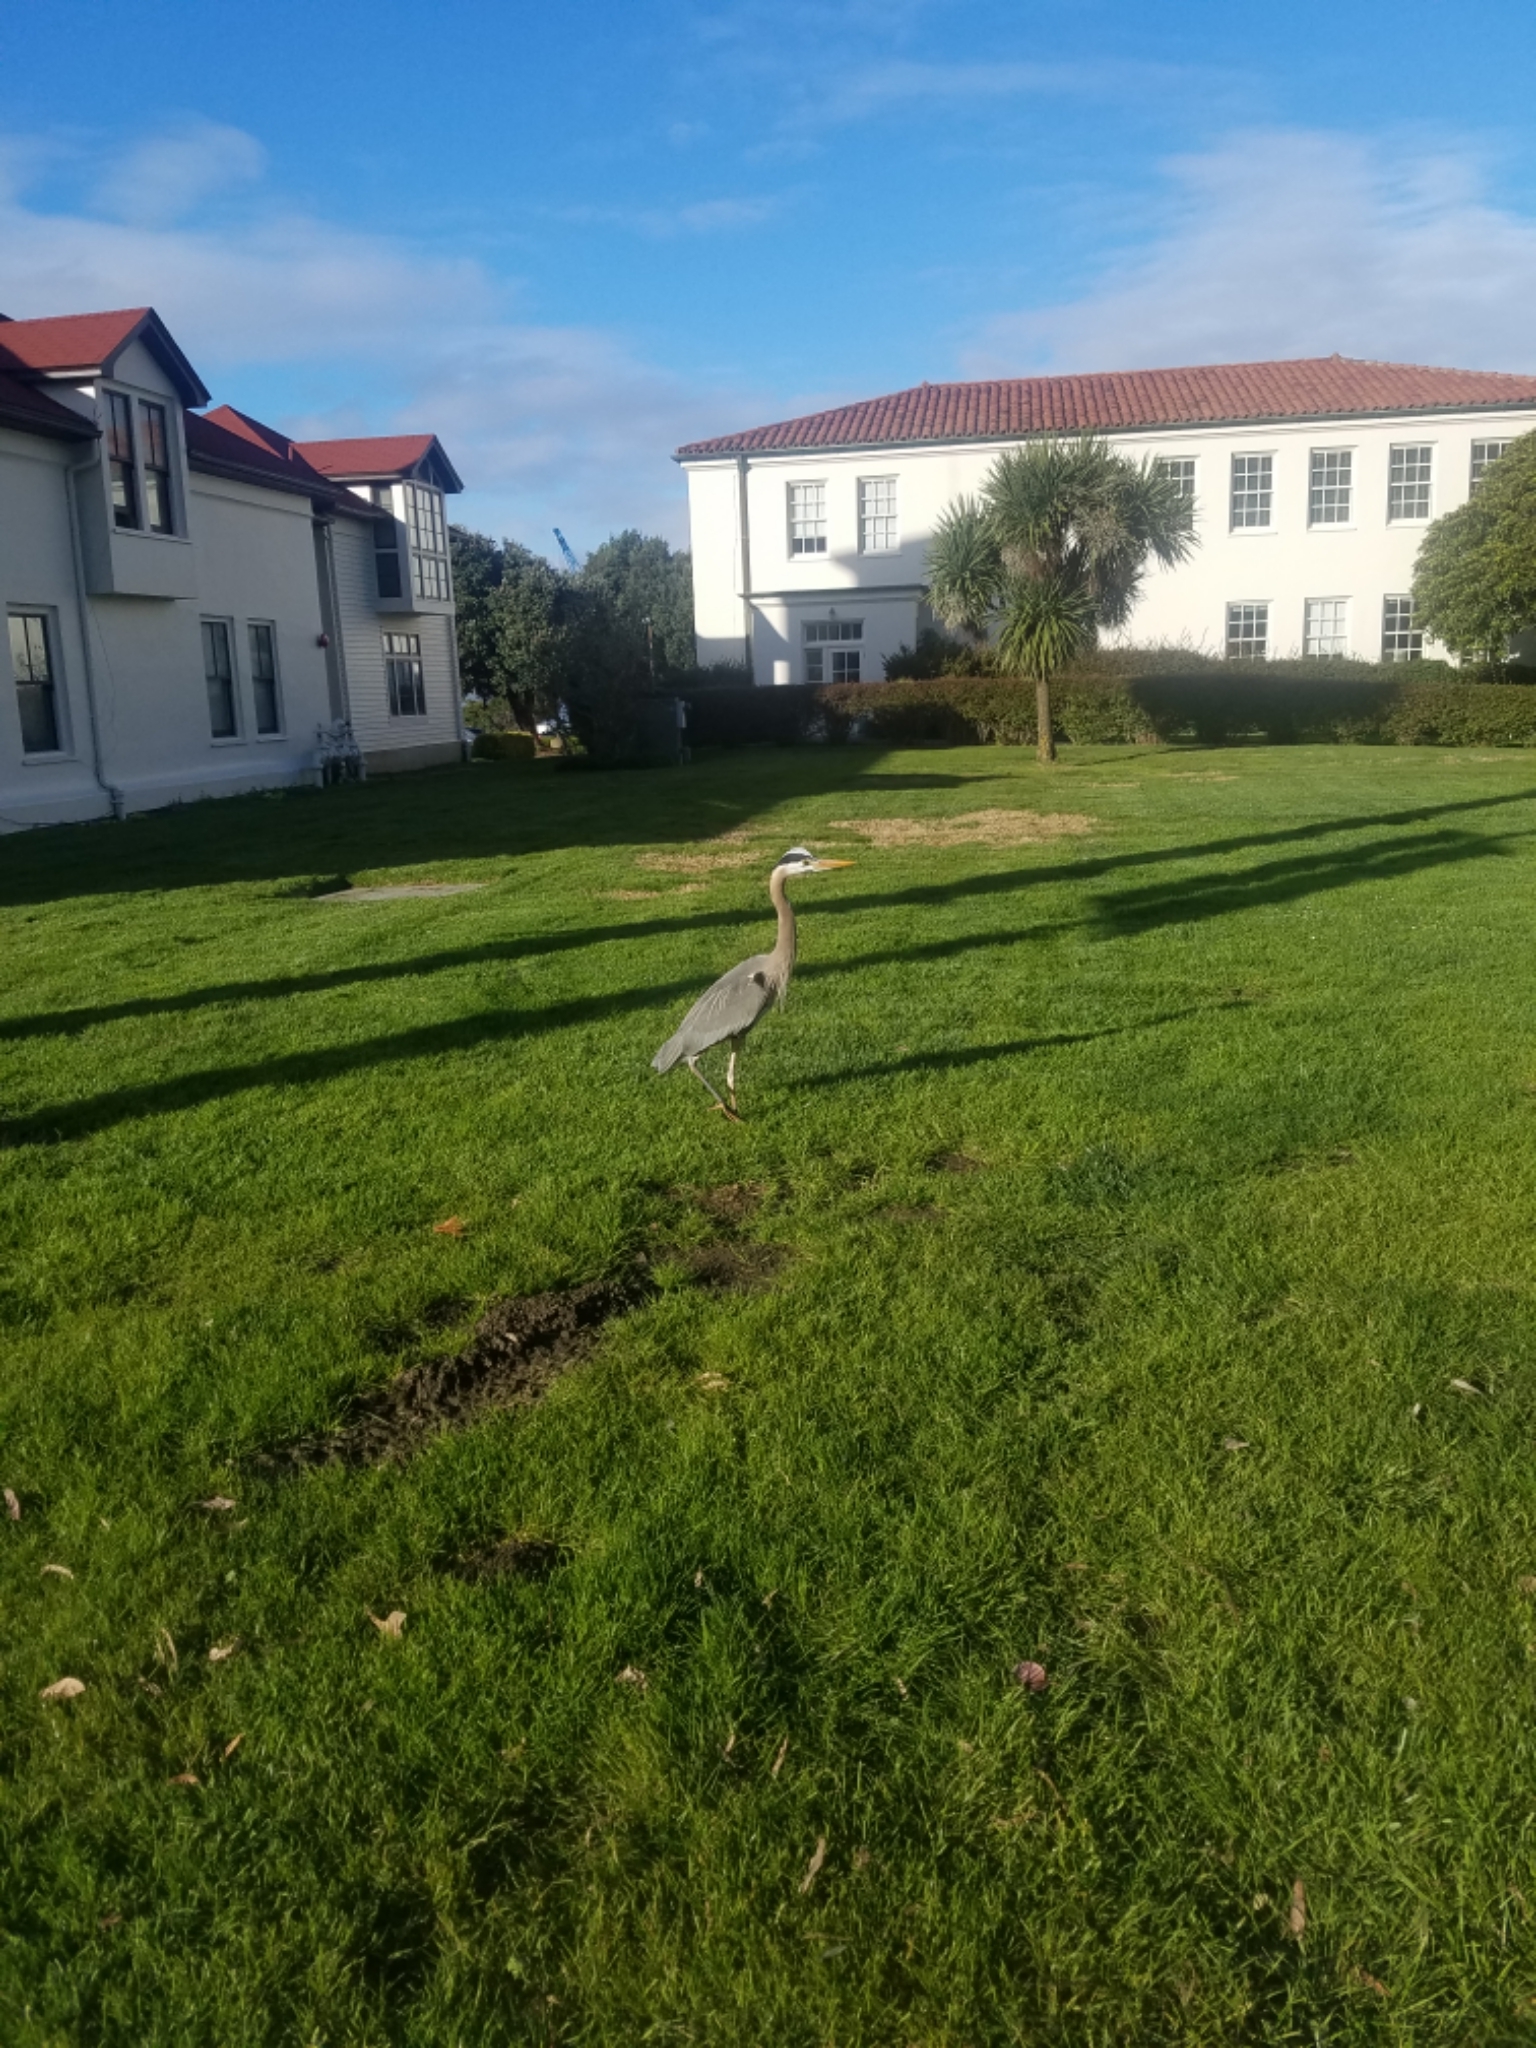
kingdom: Animalia
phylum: Chordata
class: Aves
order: Pelecaniformes
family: Ardeidae
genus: Ardea
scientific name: Ardea herodias
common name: Great blue heron
